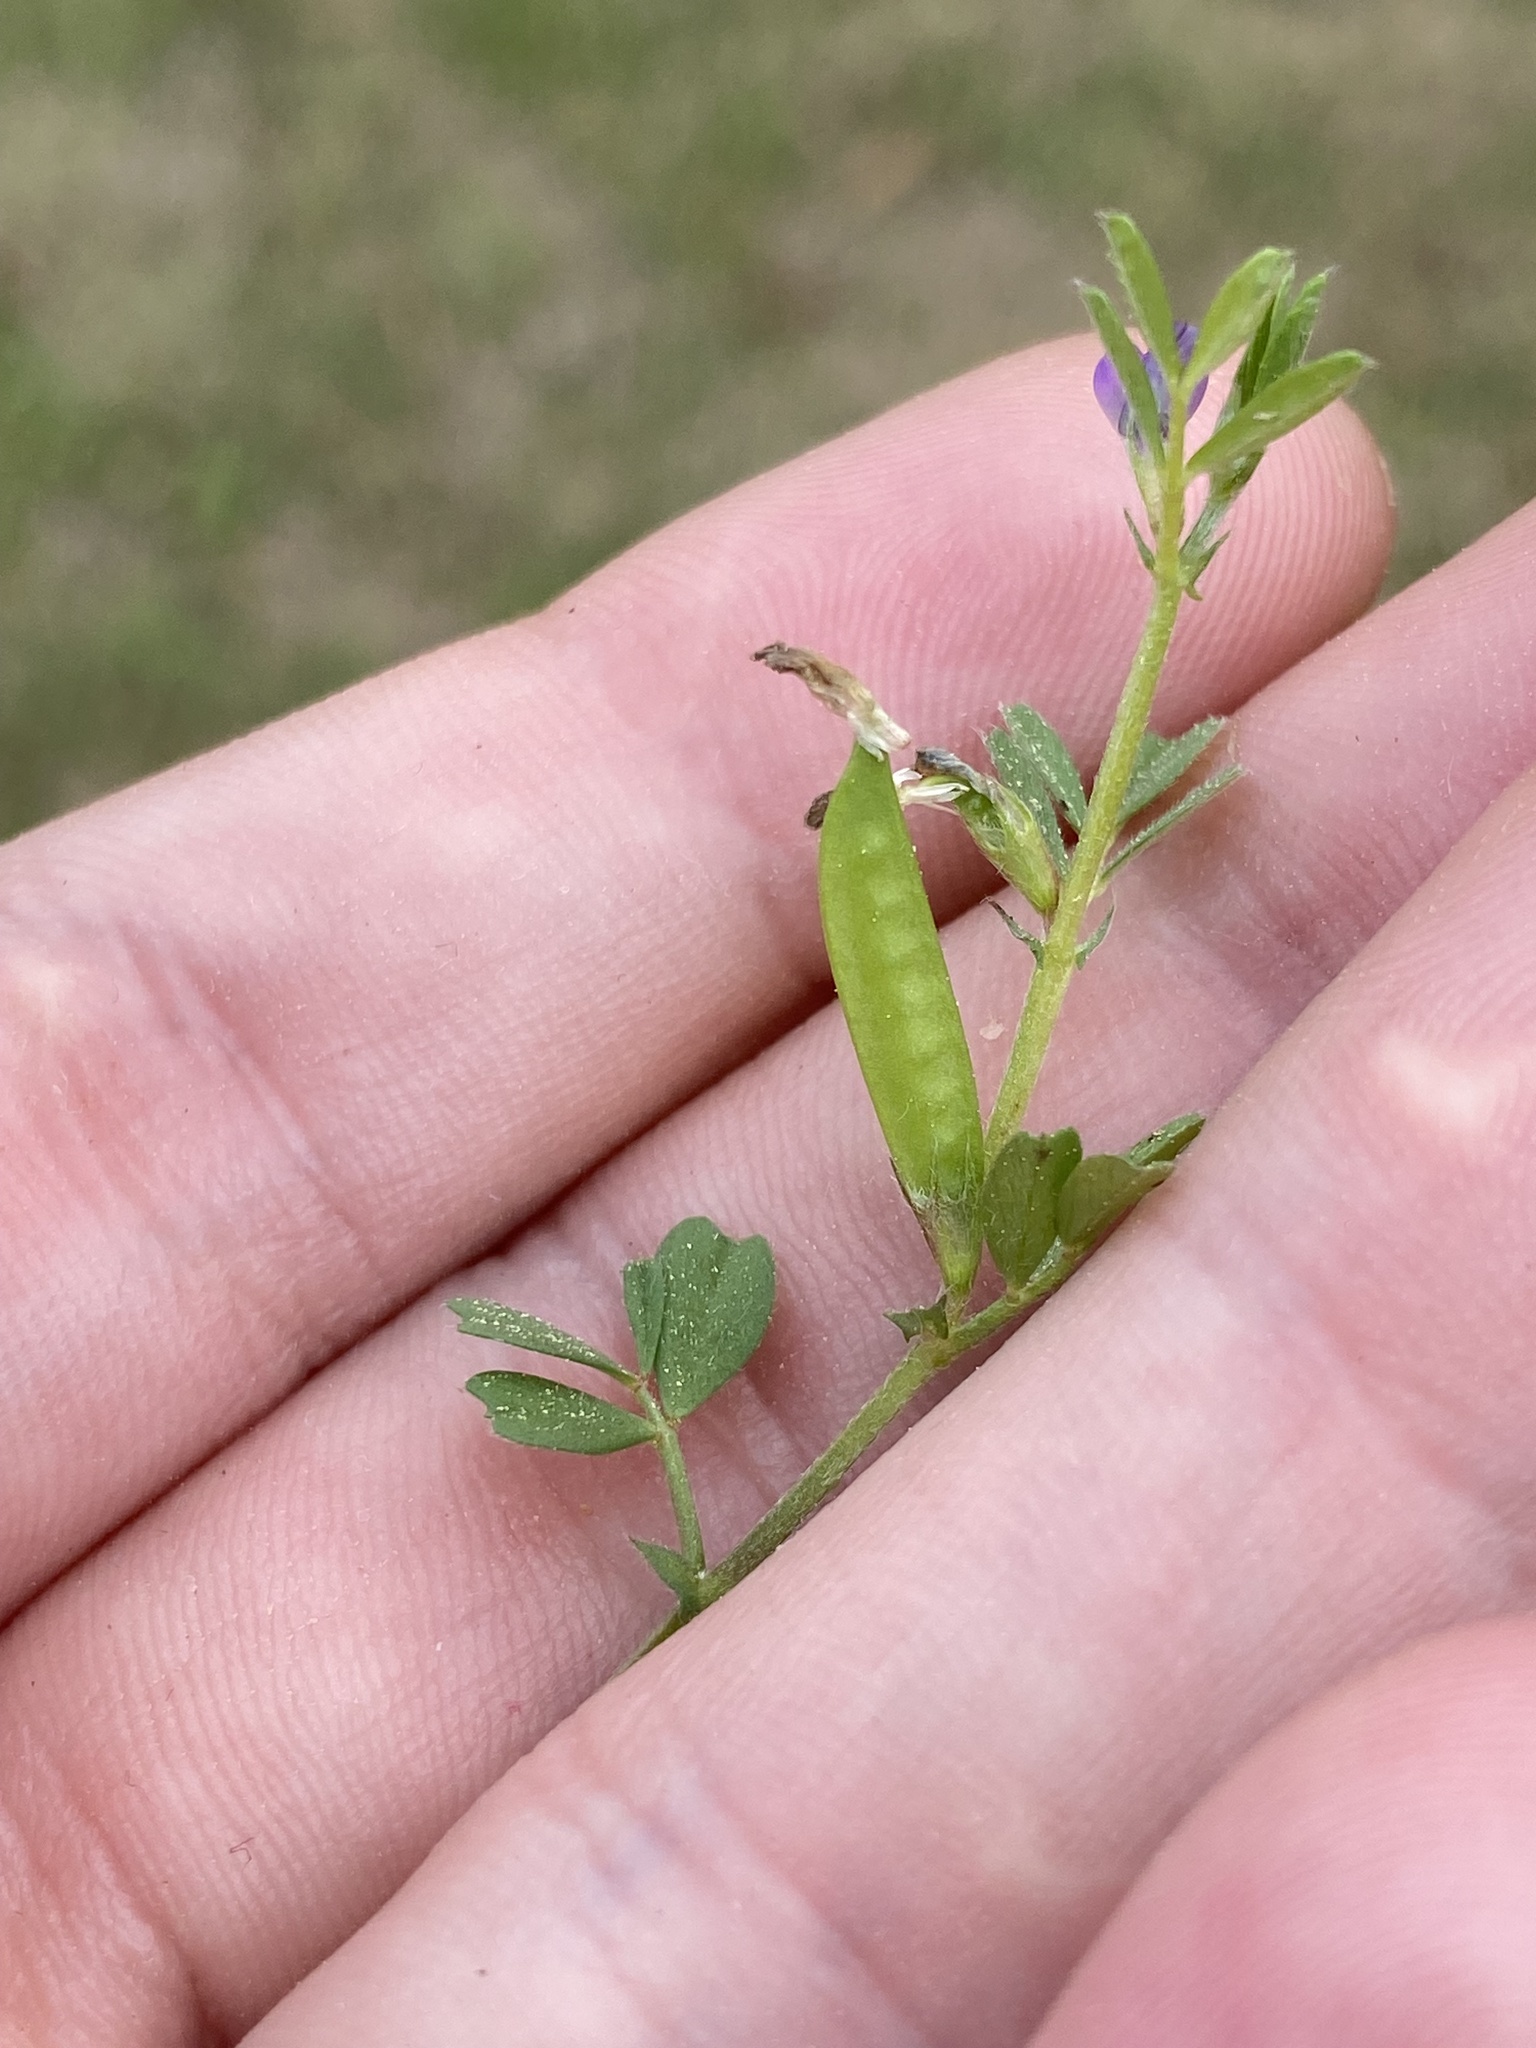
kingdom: Plantae
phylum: Tracheophyta
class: Magnoliopsida
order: Fabales
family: Fabaceae
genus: Vicia
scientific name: Vicia lathyroides
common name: Spring vetch
